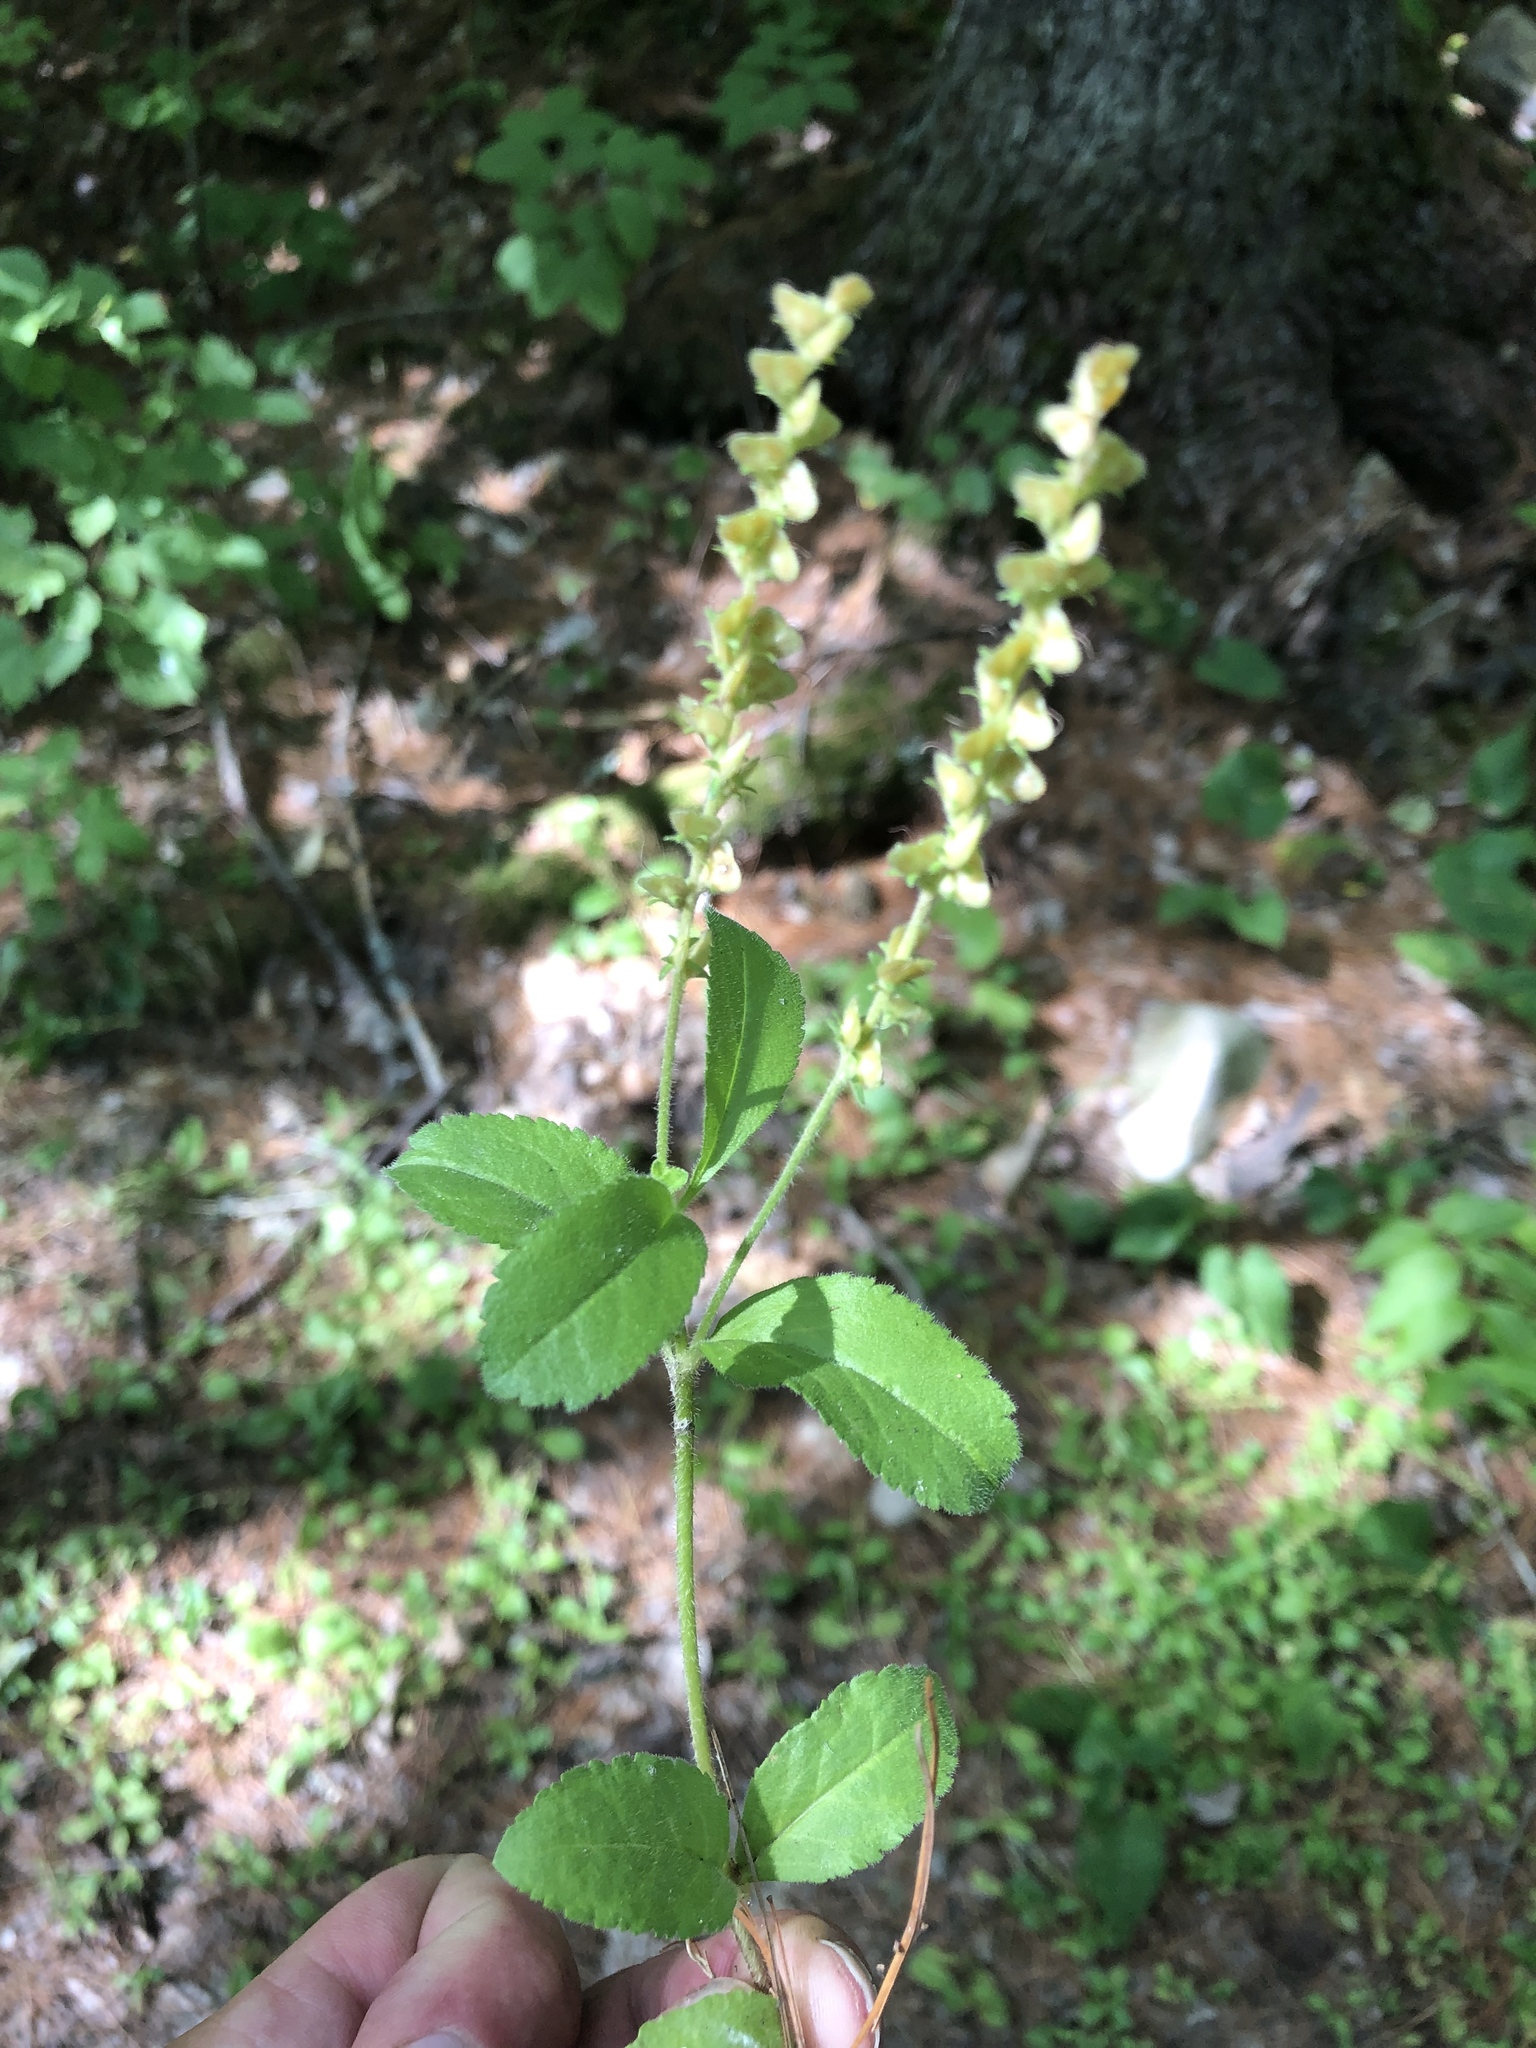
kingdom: Plantae
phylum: Tracheophyta
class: Magnoliopsida
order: Lamiales
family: Plantaginaceae
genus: Veronica
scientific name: Veronica officinalis
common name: Common speedwell
